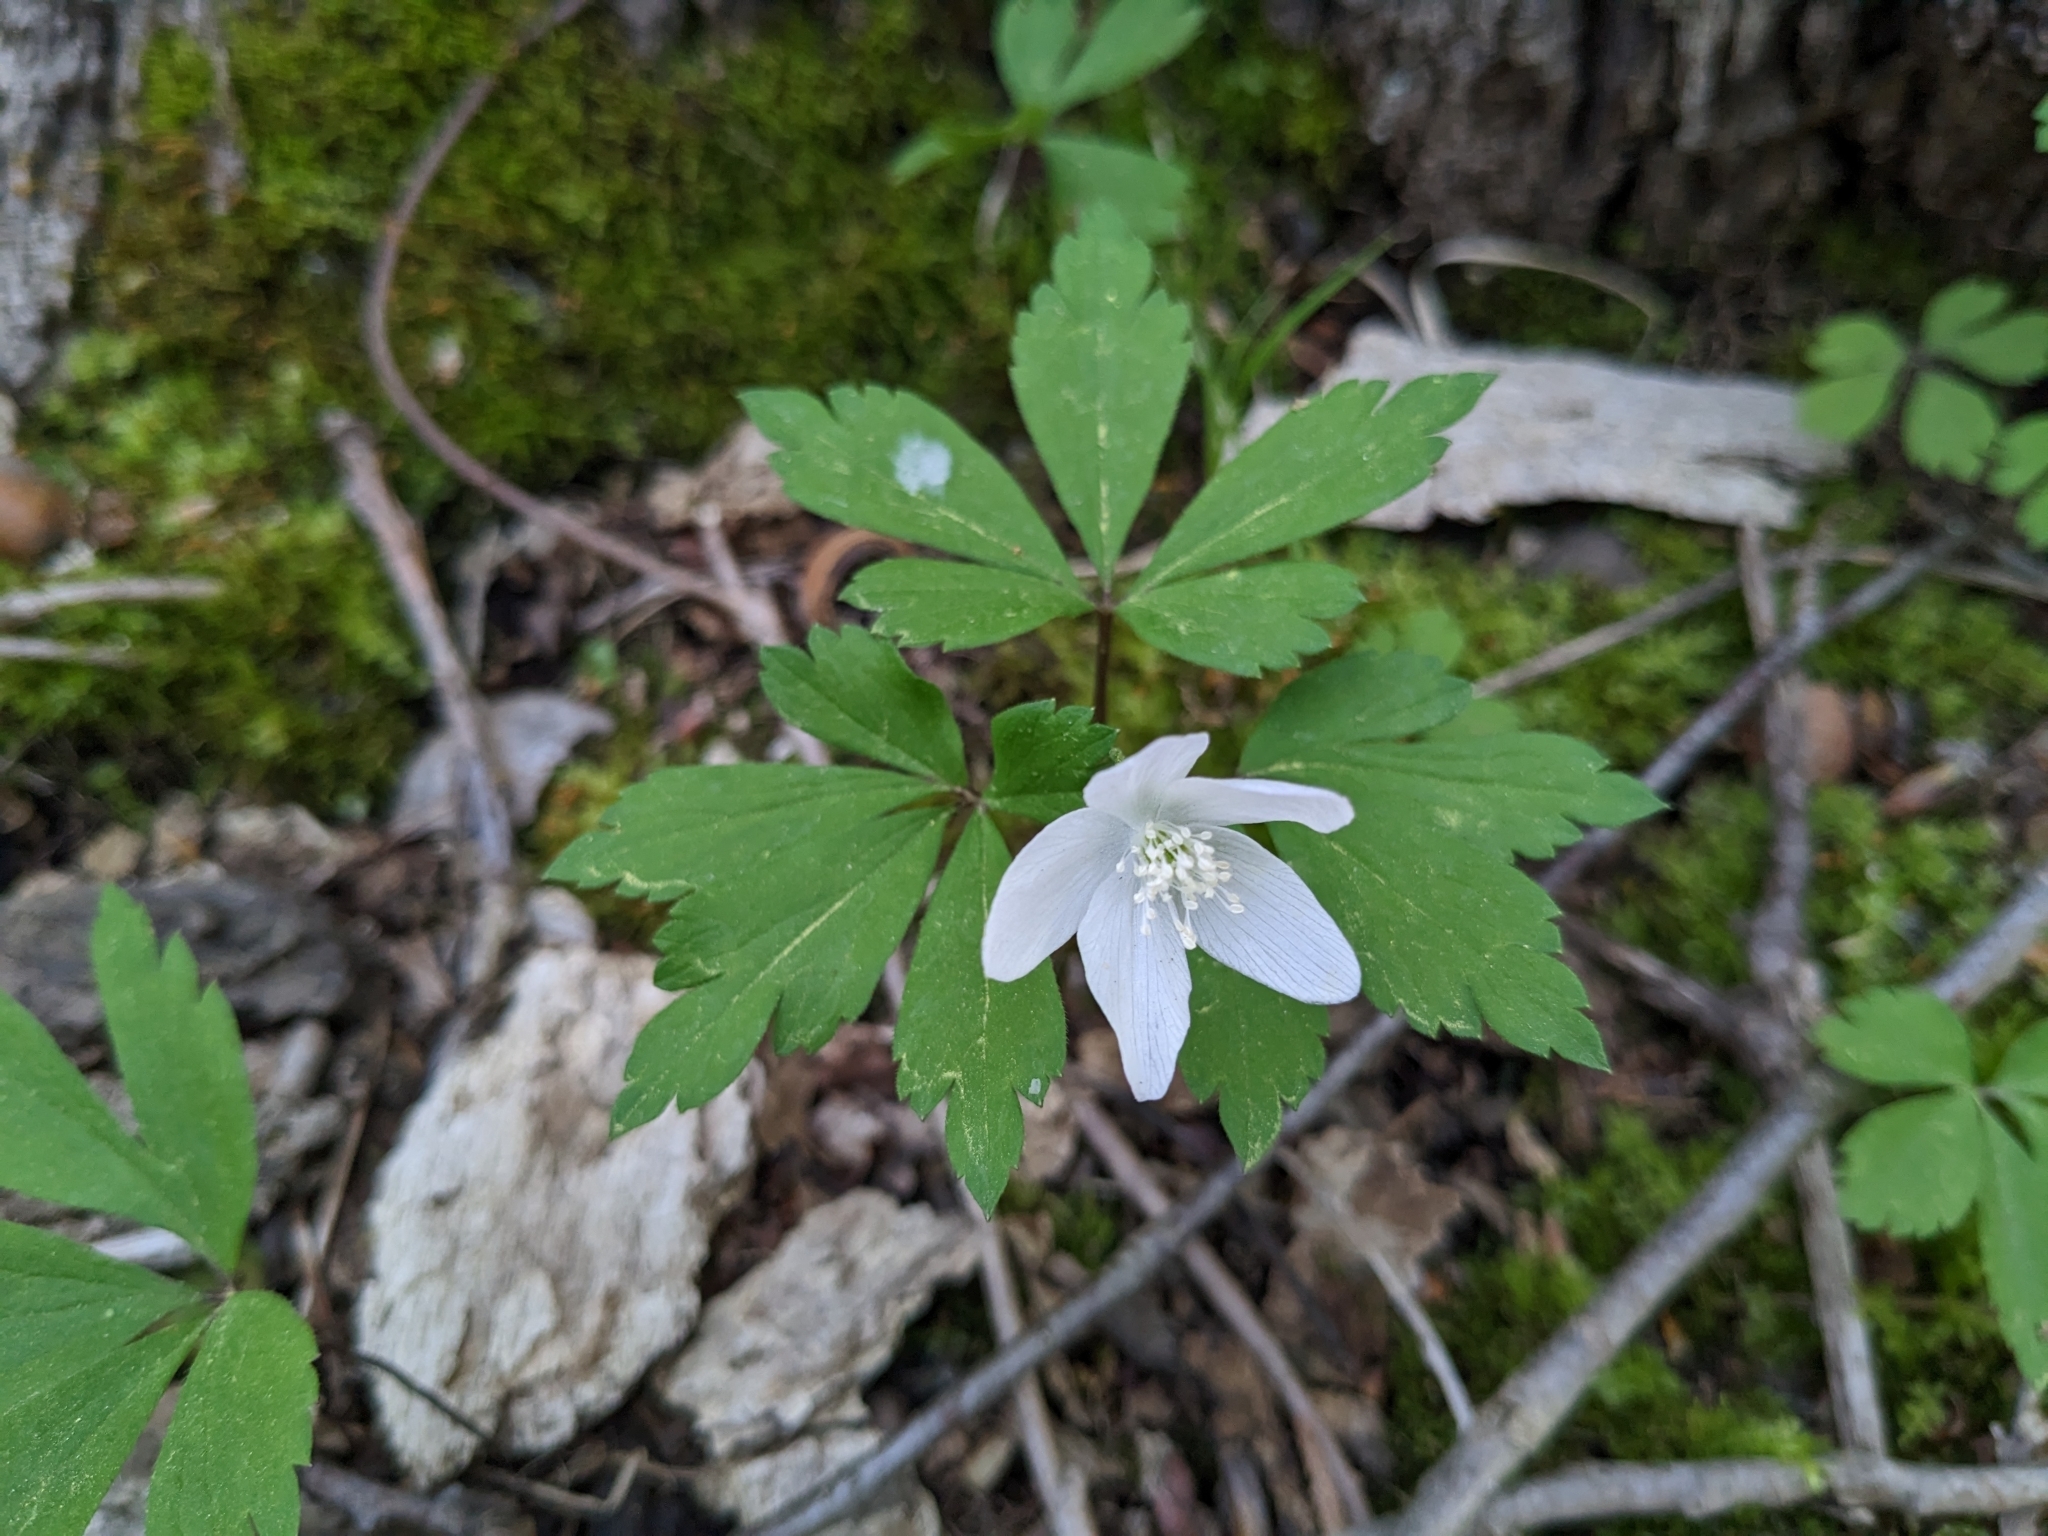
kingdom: Plantae
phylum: Tracheophyta
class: Magnoliopsida
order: Ranunculales
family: Ranunculaceae
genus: Anemone
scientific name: Anemone quinquefolia
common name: Wood anemone
